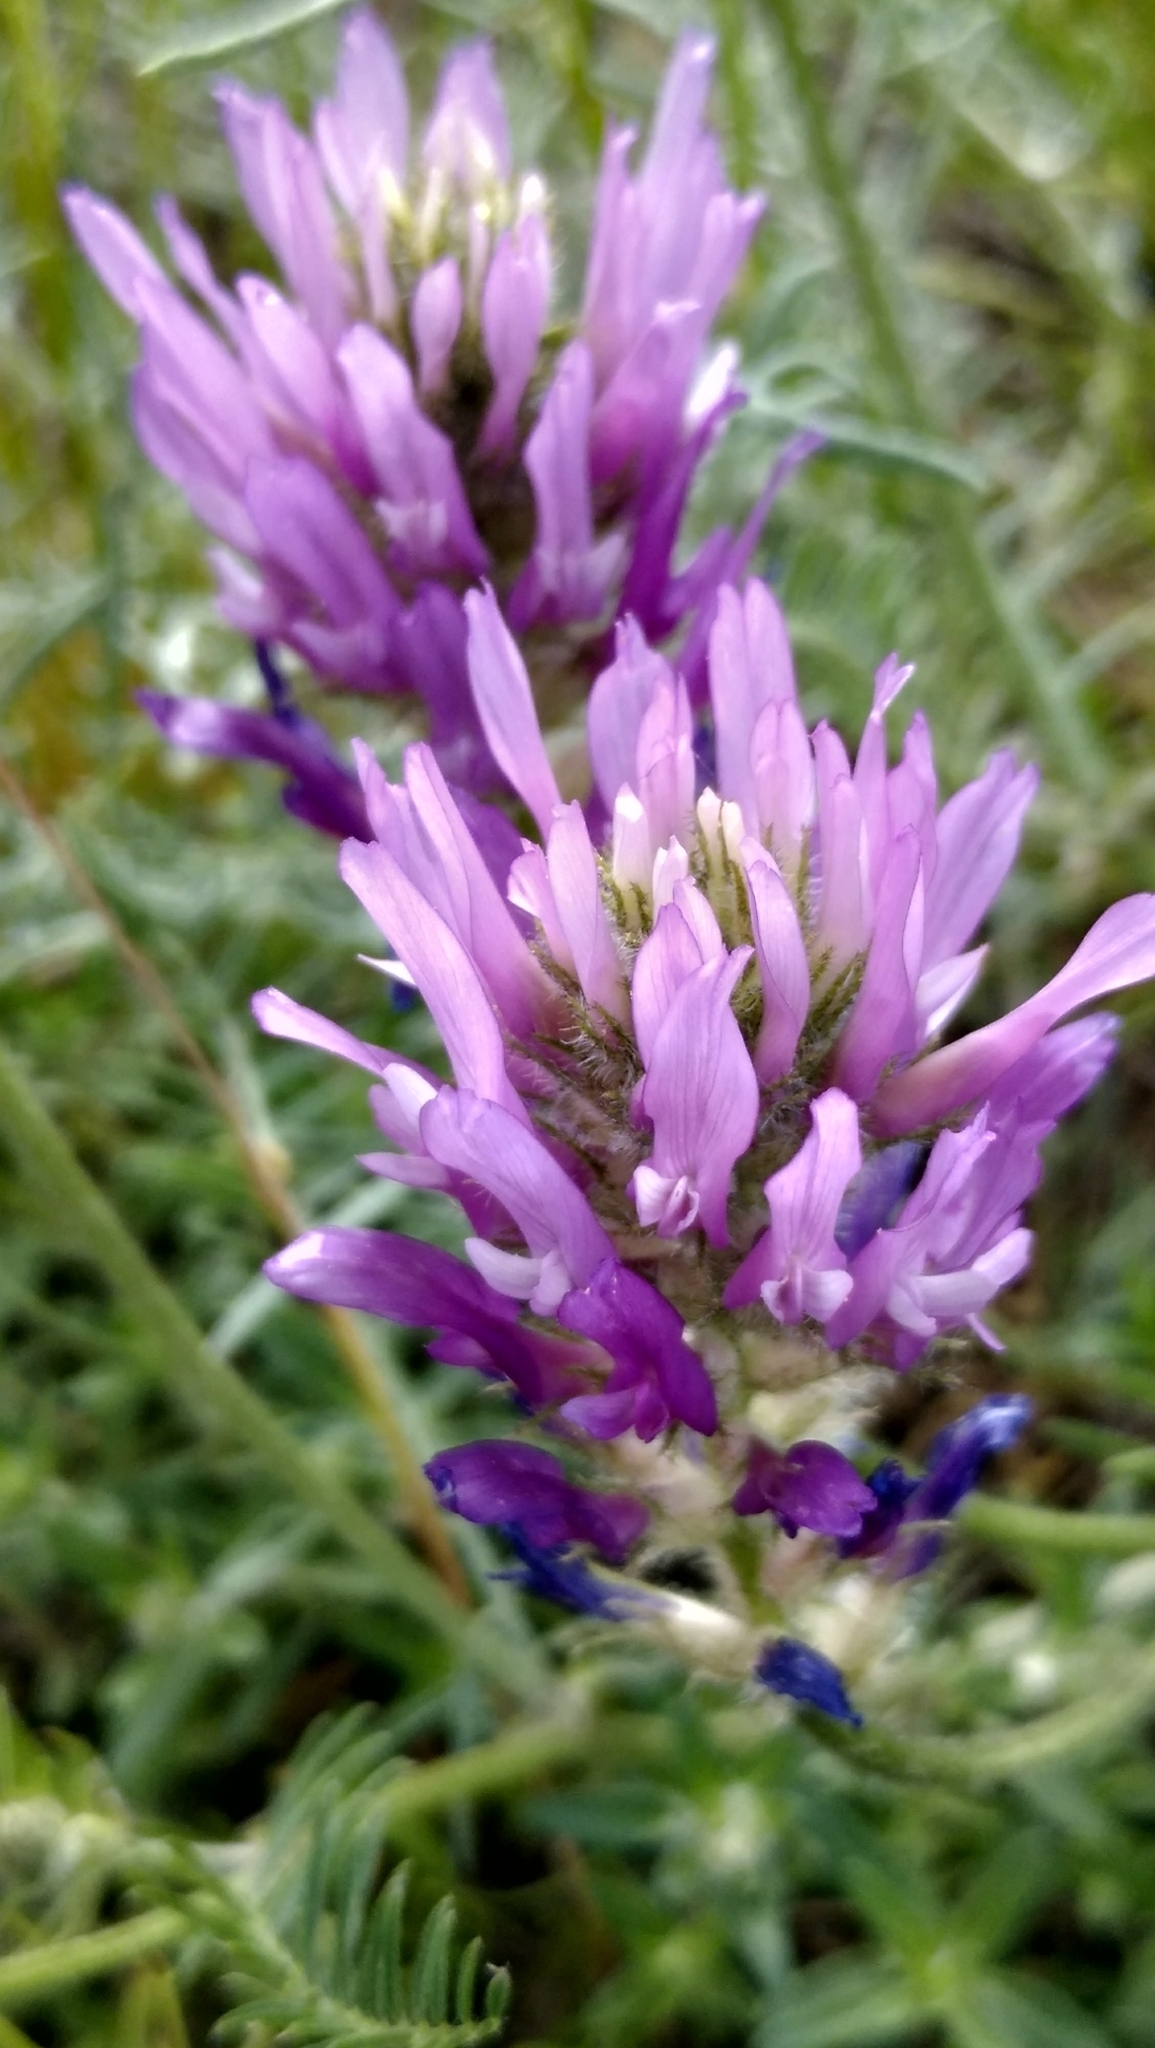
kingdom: Plantae
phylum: Tracheophyta
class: Magnoliopsida
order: Fabales
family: Fabaceae
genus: Astragalus
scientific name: Astragalus onobrychis
